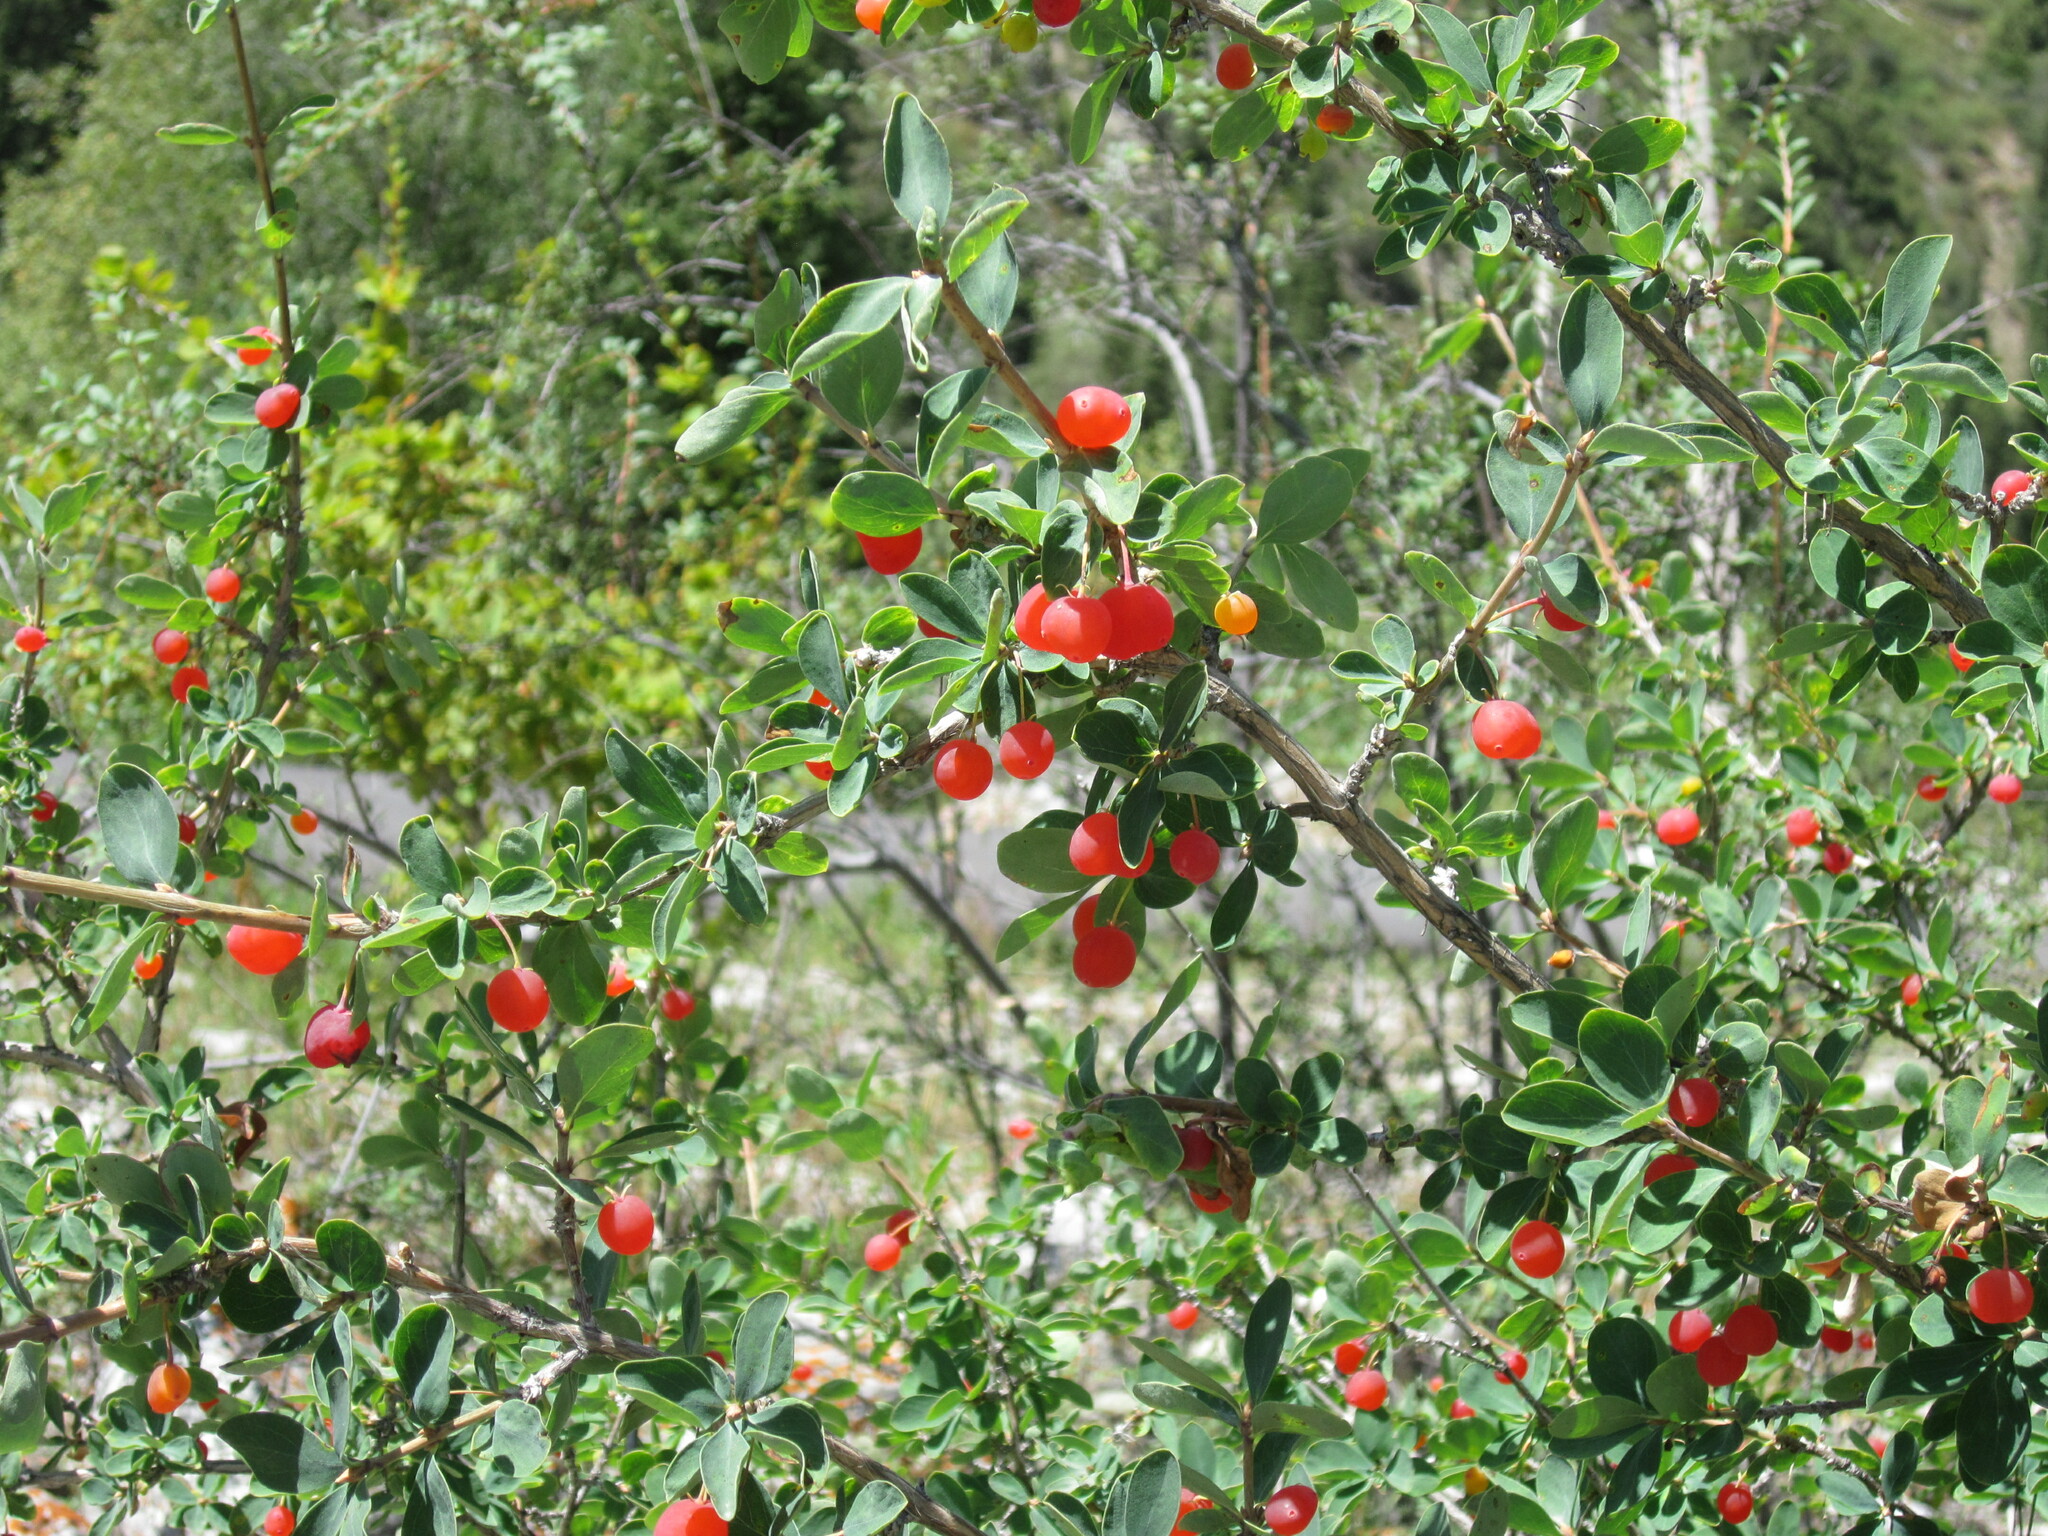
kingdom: Plantae
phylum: Tracheophyta
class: Magnoliopsida
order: Dipsacales
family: Caprifoliaceae
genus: Lonicera
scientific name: Lonicera microphylla
